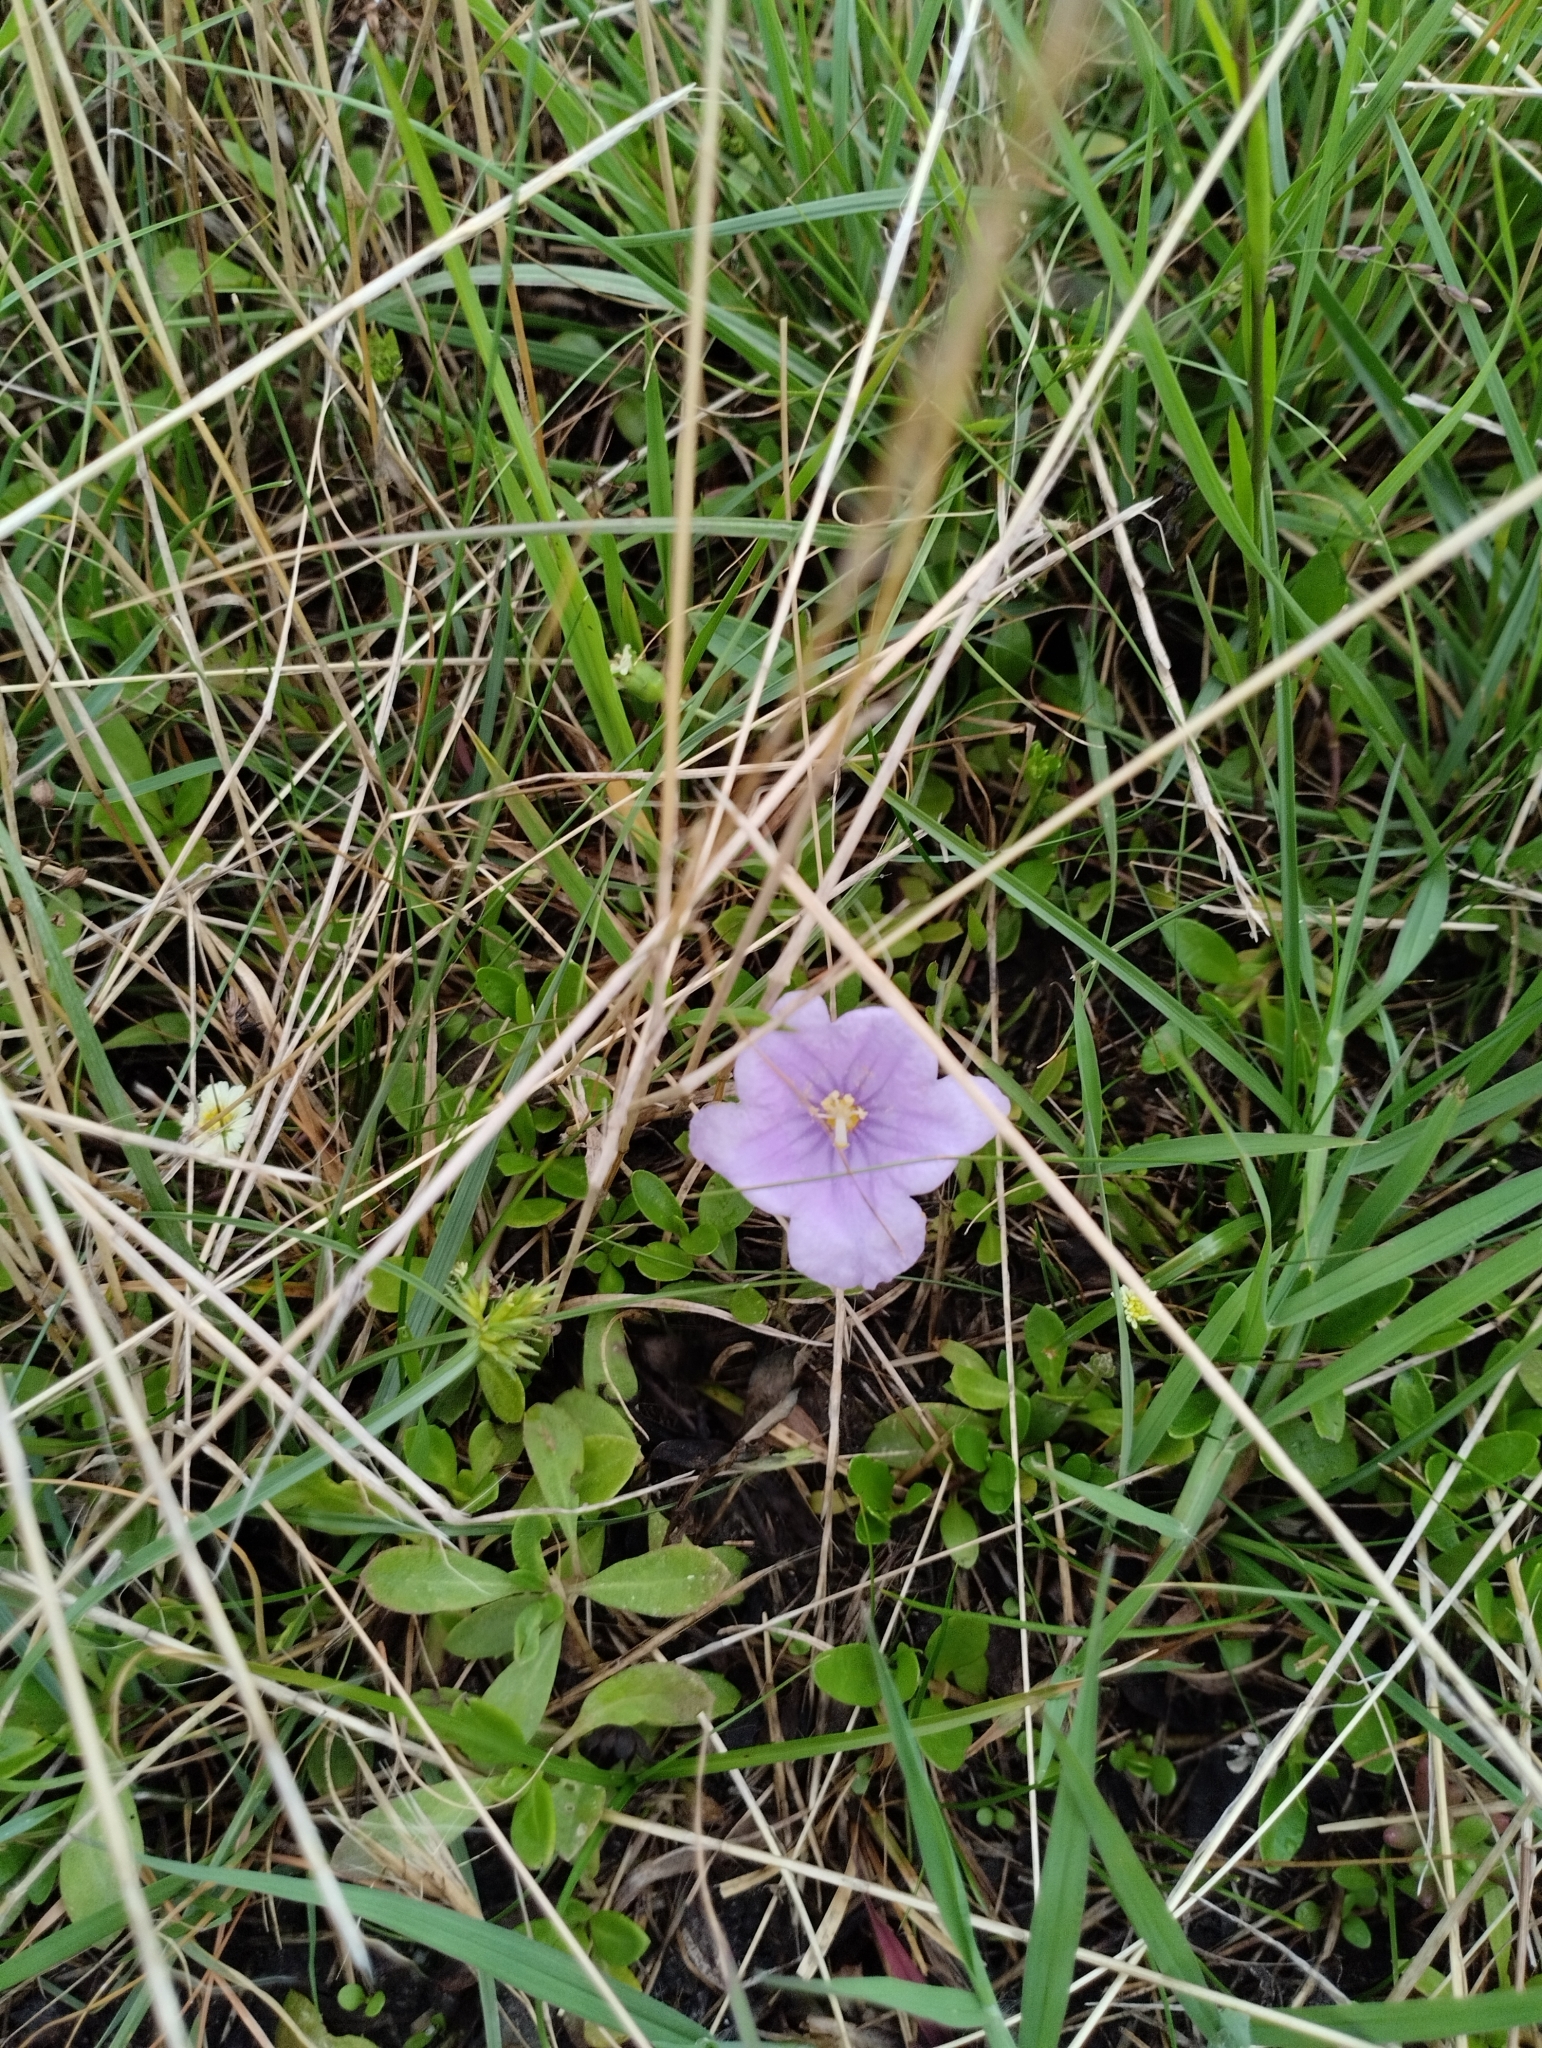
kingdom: Plantae
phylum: Tracheophyta
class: Magnoliopsida
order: Solanales
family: Solanaceae
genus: Nierembergia
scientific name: Nierembergia aristata
